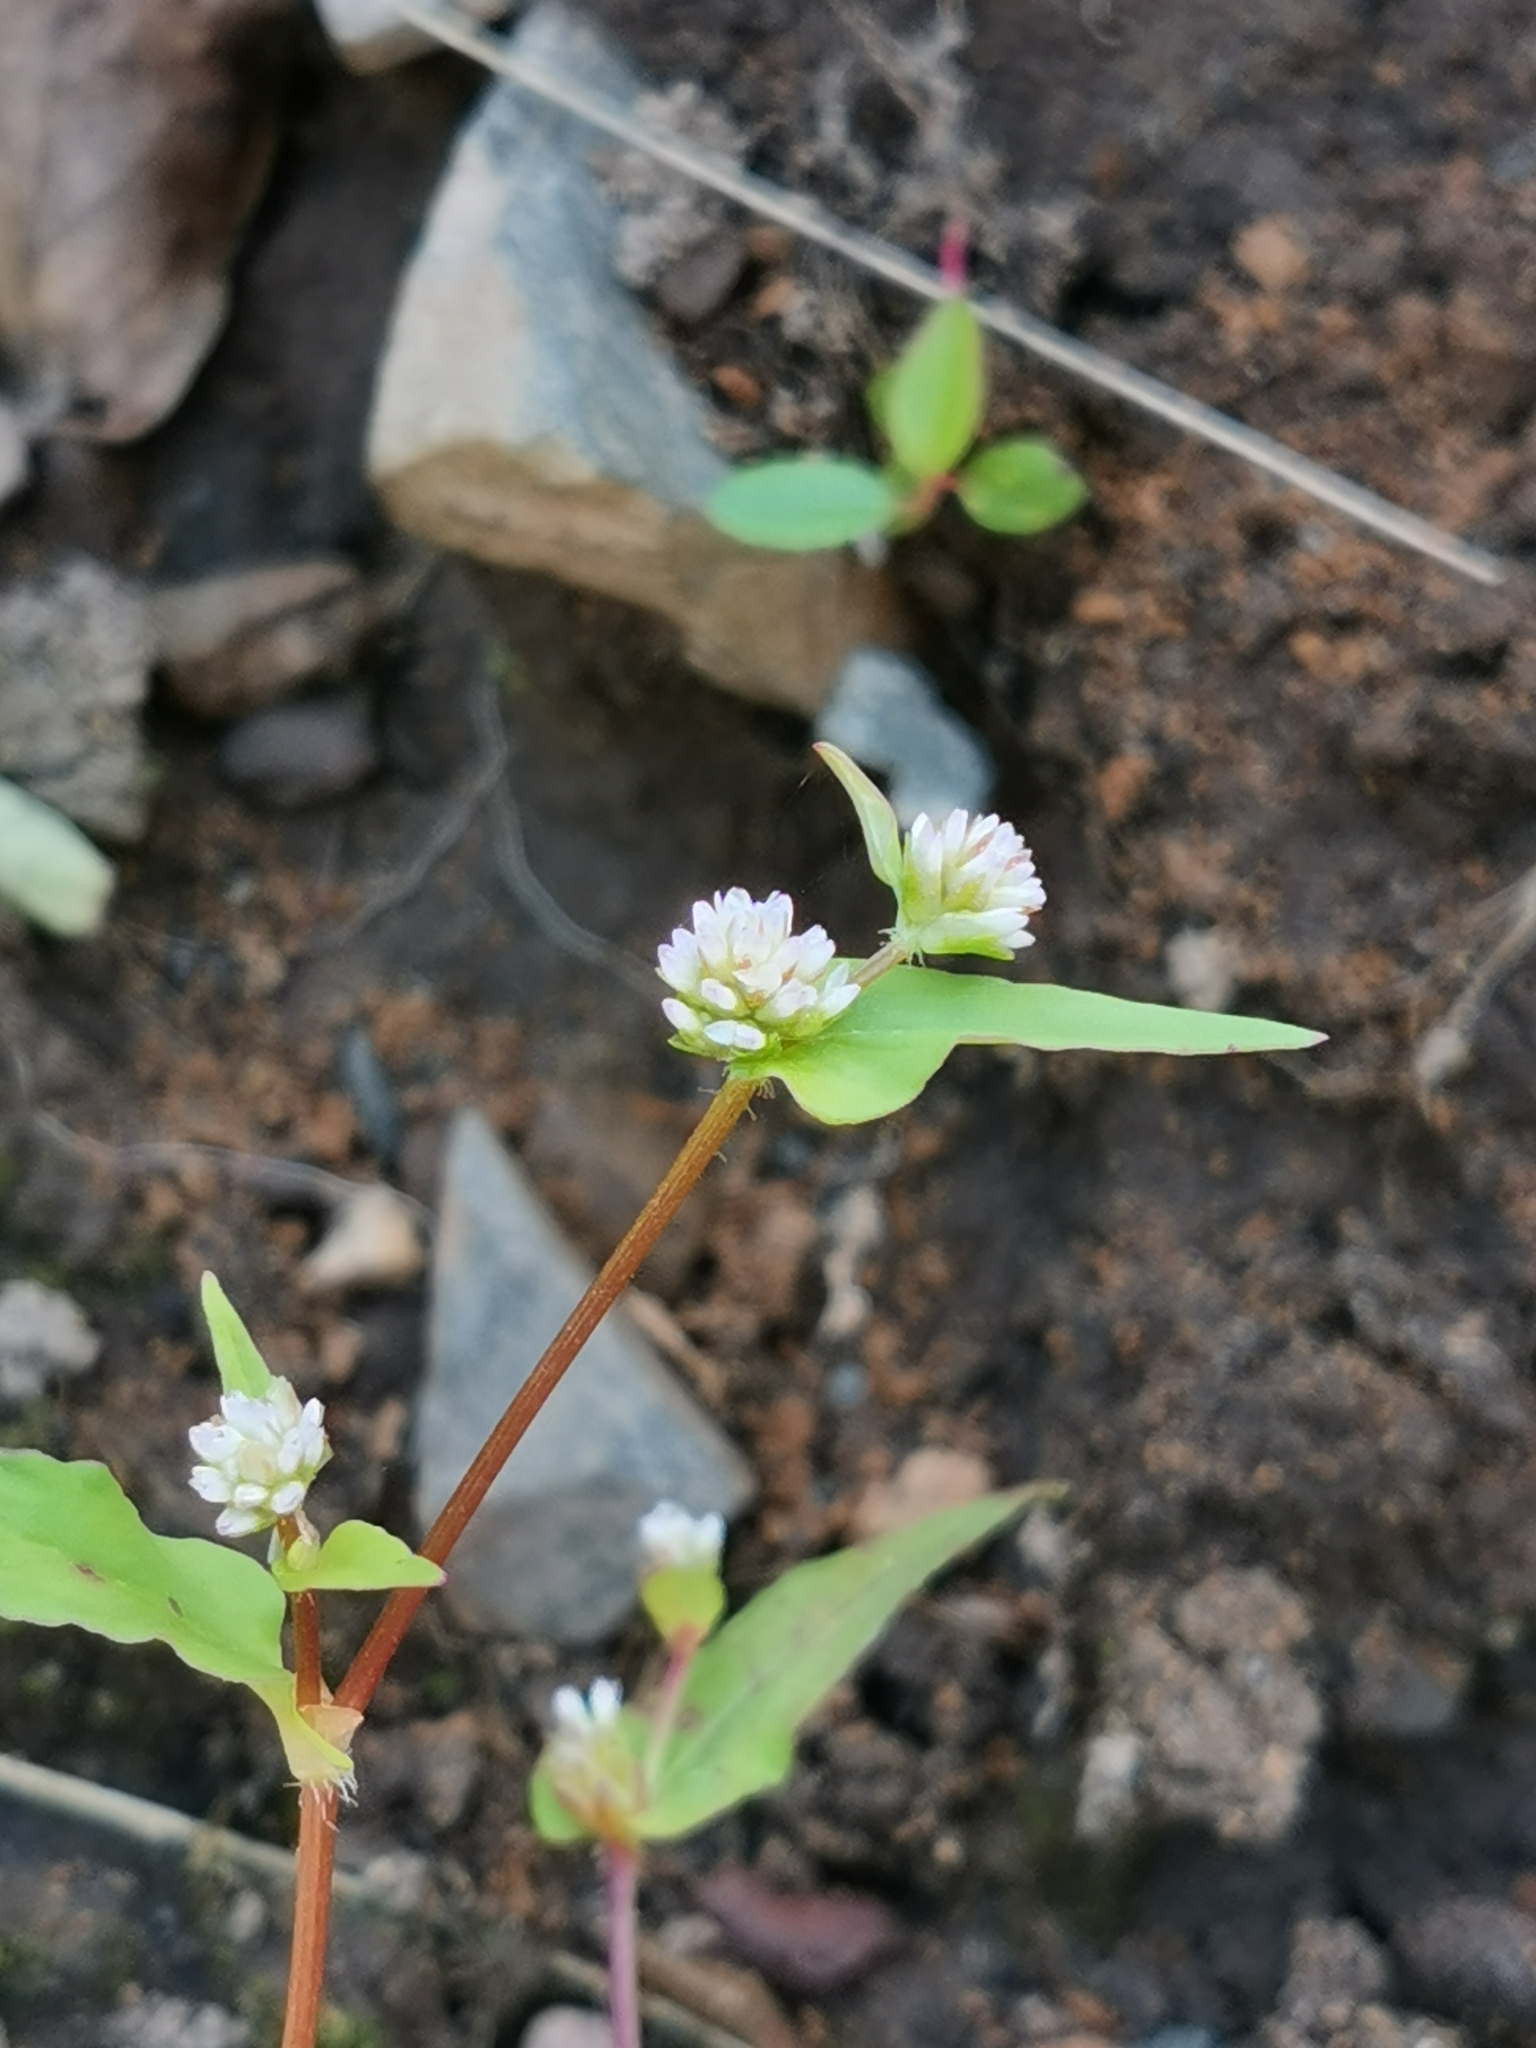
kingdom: Plantae
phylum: Tracheophyta
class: Magnoliopsida
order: Caryophyllales
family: Polygonaceae
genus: Persicaria
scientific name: Persicaria nepalensis
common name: Nepal persicaria
